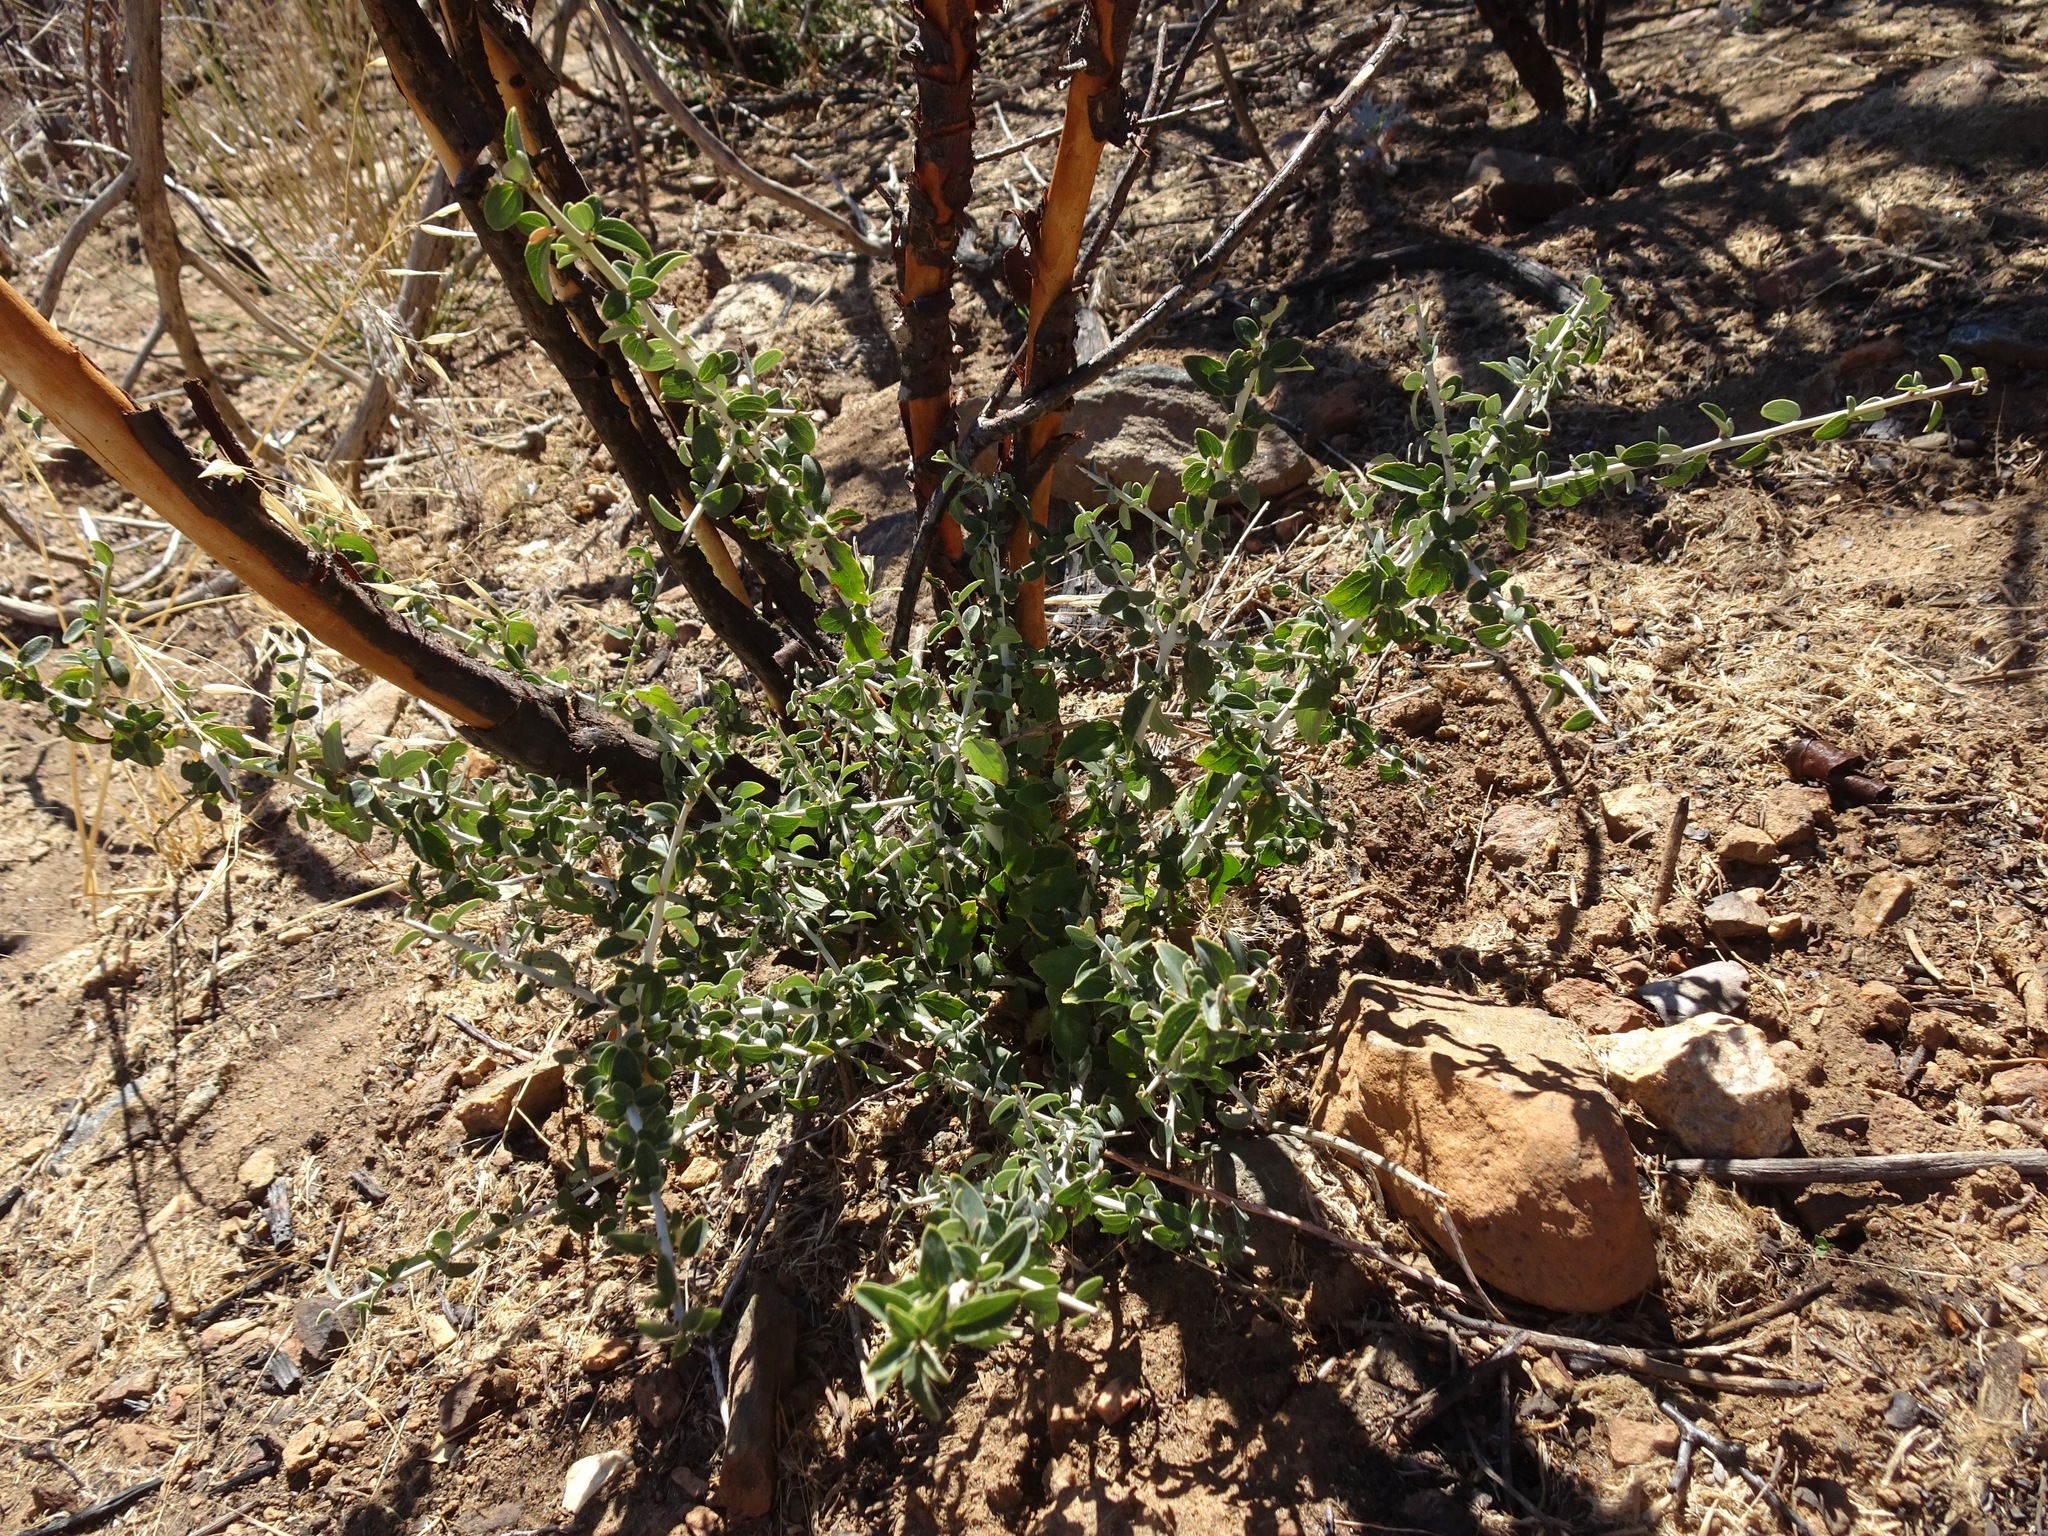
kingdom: Plantae
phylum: Tracheophyta
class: Magnoliopsida
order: Rosales
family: Rhamnaceae
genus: Ceanothus
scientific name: Ceanothus leucodermis
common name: Chaparral whitethorn
